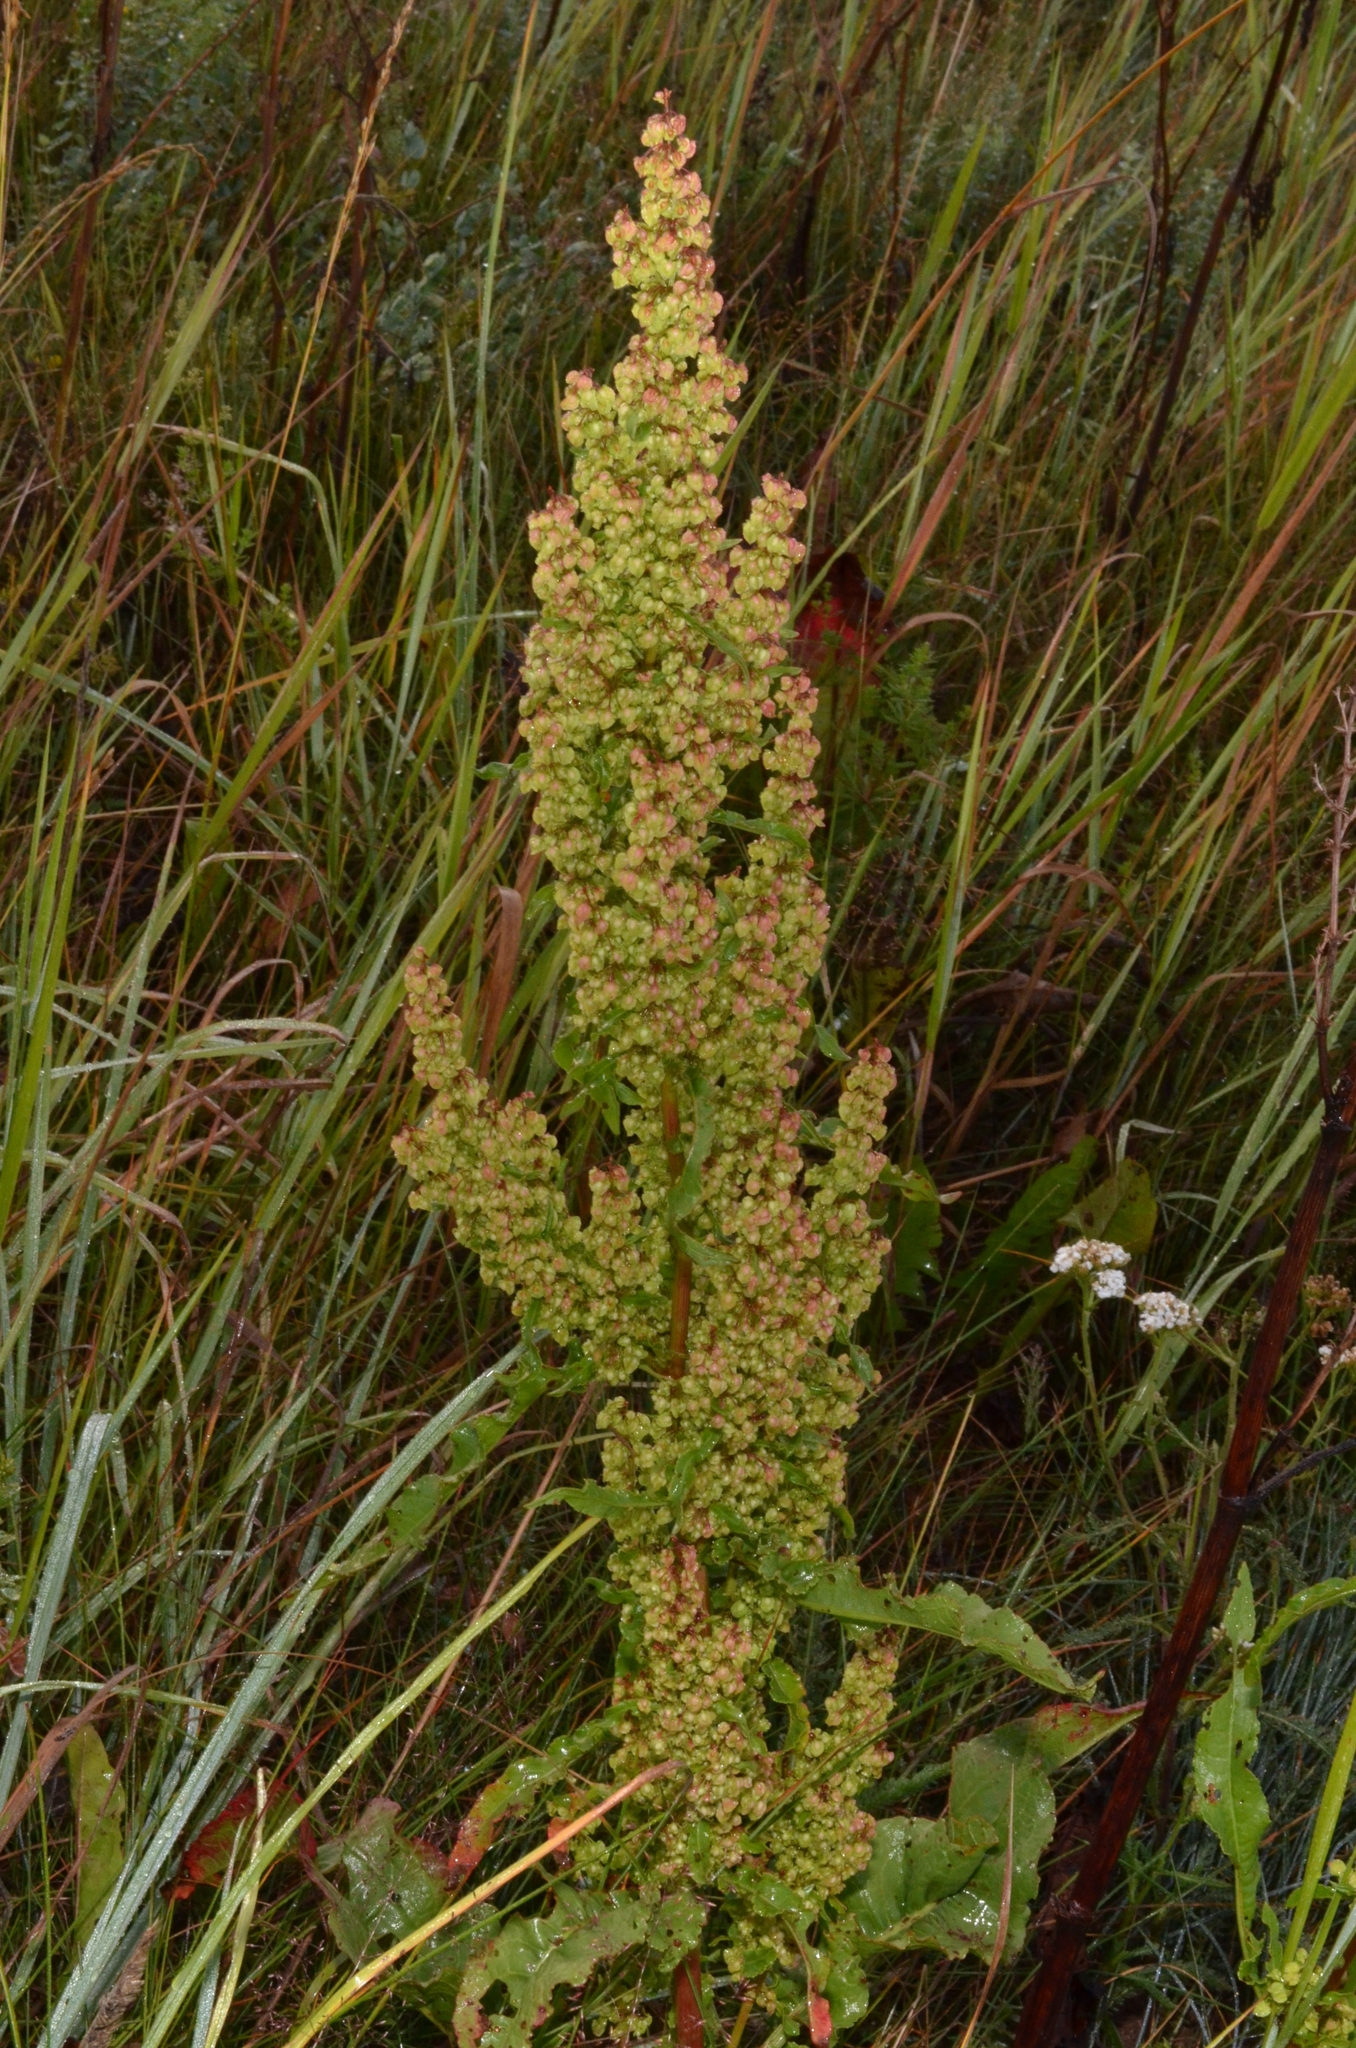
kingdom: Plantae
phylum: Tracheophyta
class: Magnoliopsida
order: Caryophyllales
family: Polygonaceae
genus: Rumex
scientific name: Rumex crispus
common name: Curled dock
